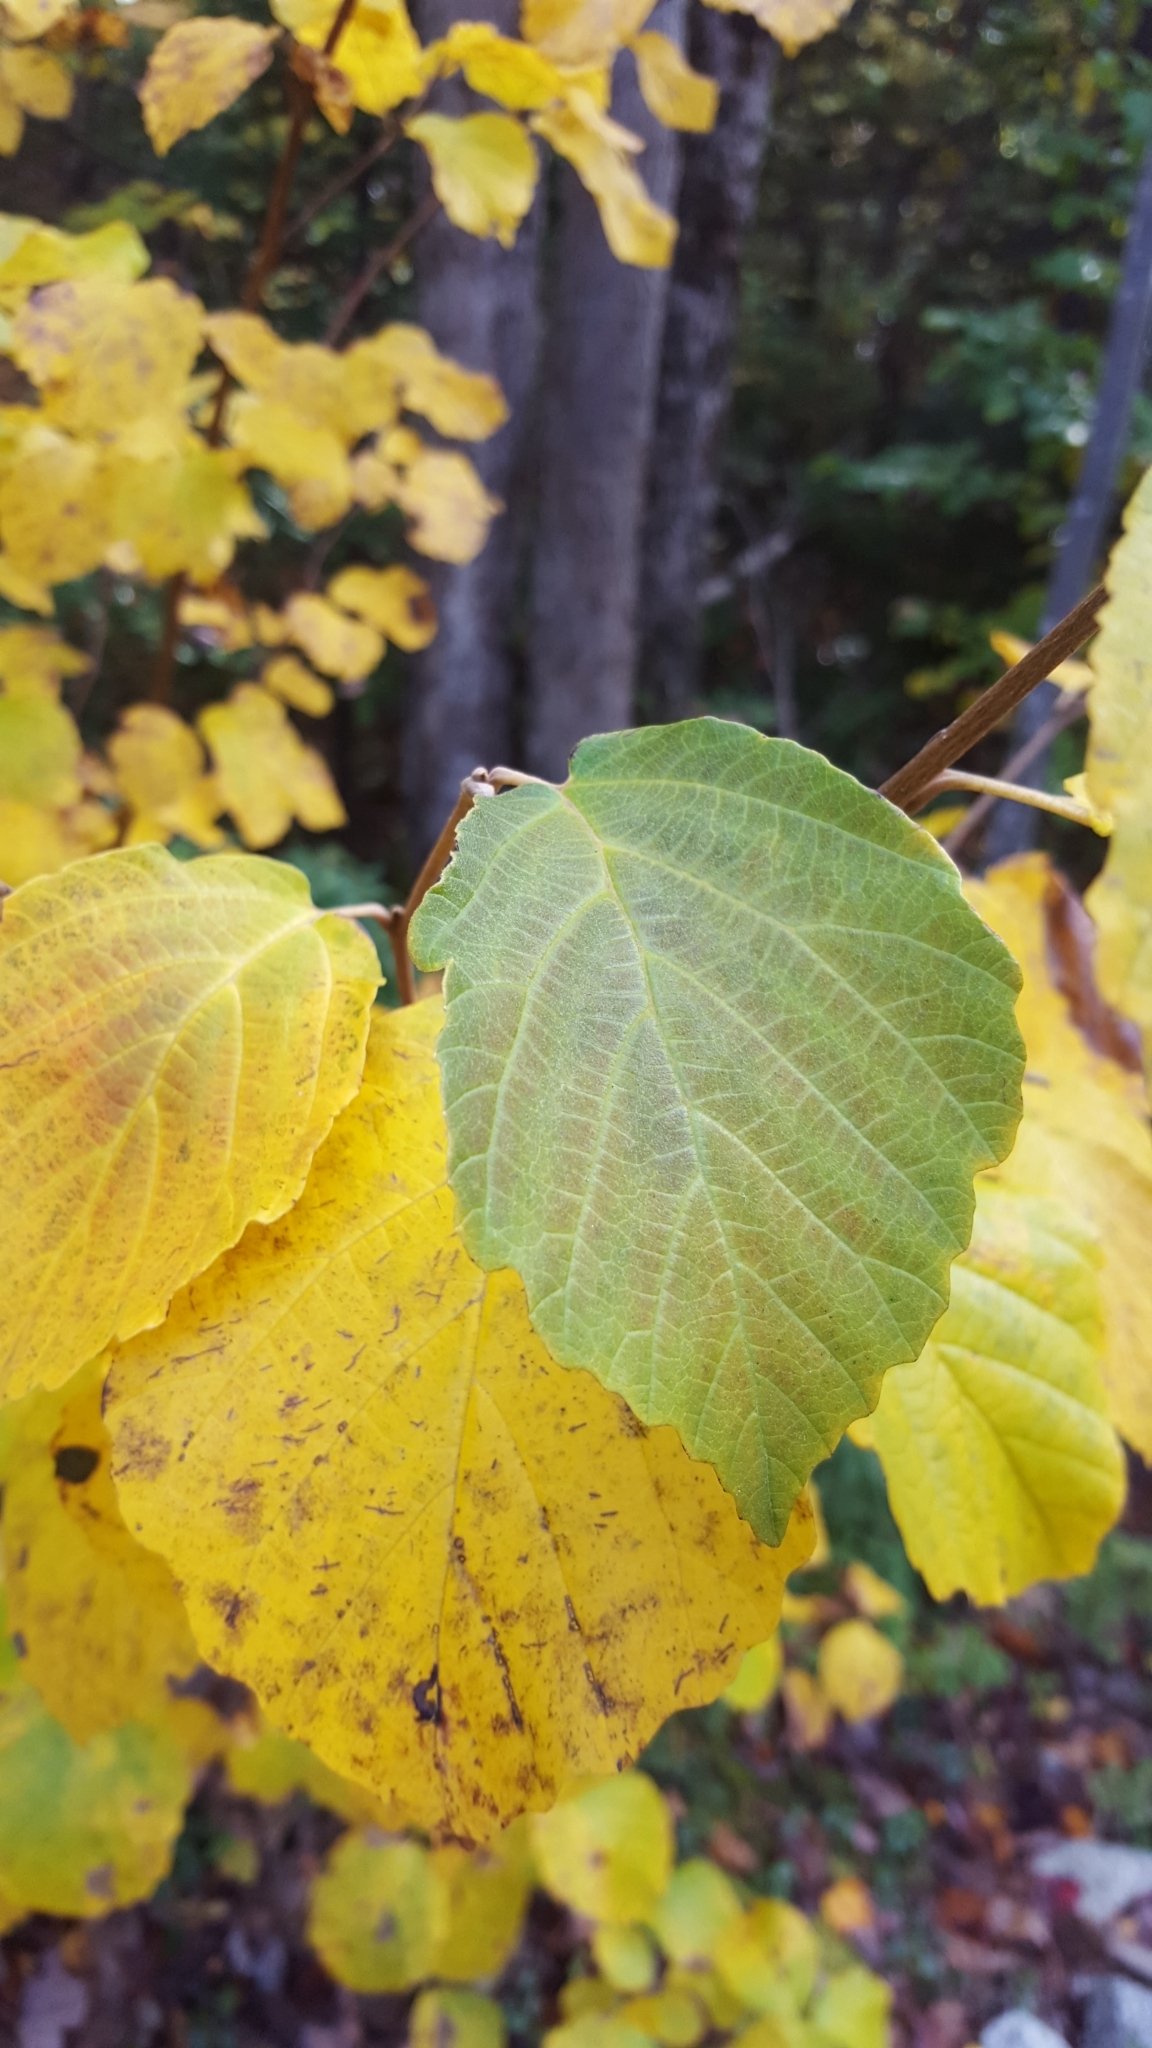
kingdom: Plantae
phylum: Tracheophyta
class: Magnoliopsida
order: Saxifragales
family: Hamamelidaceae
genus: Hamamelis
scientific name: Hamamelis virginiana
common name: Witch-hazel
